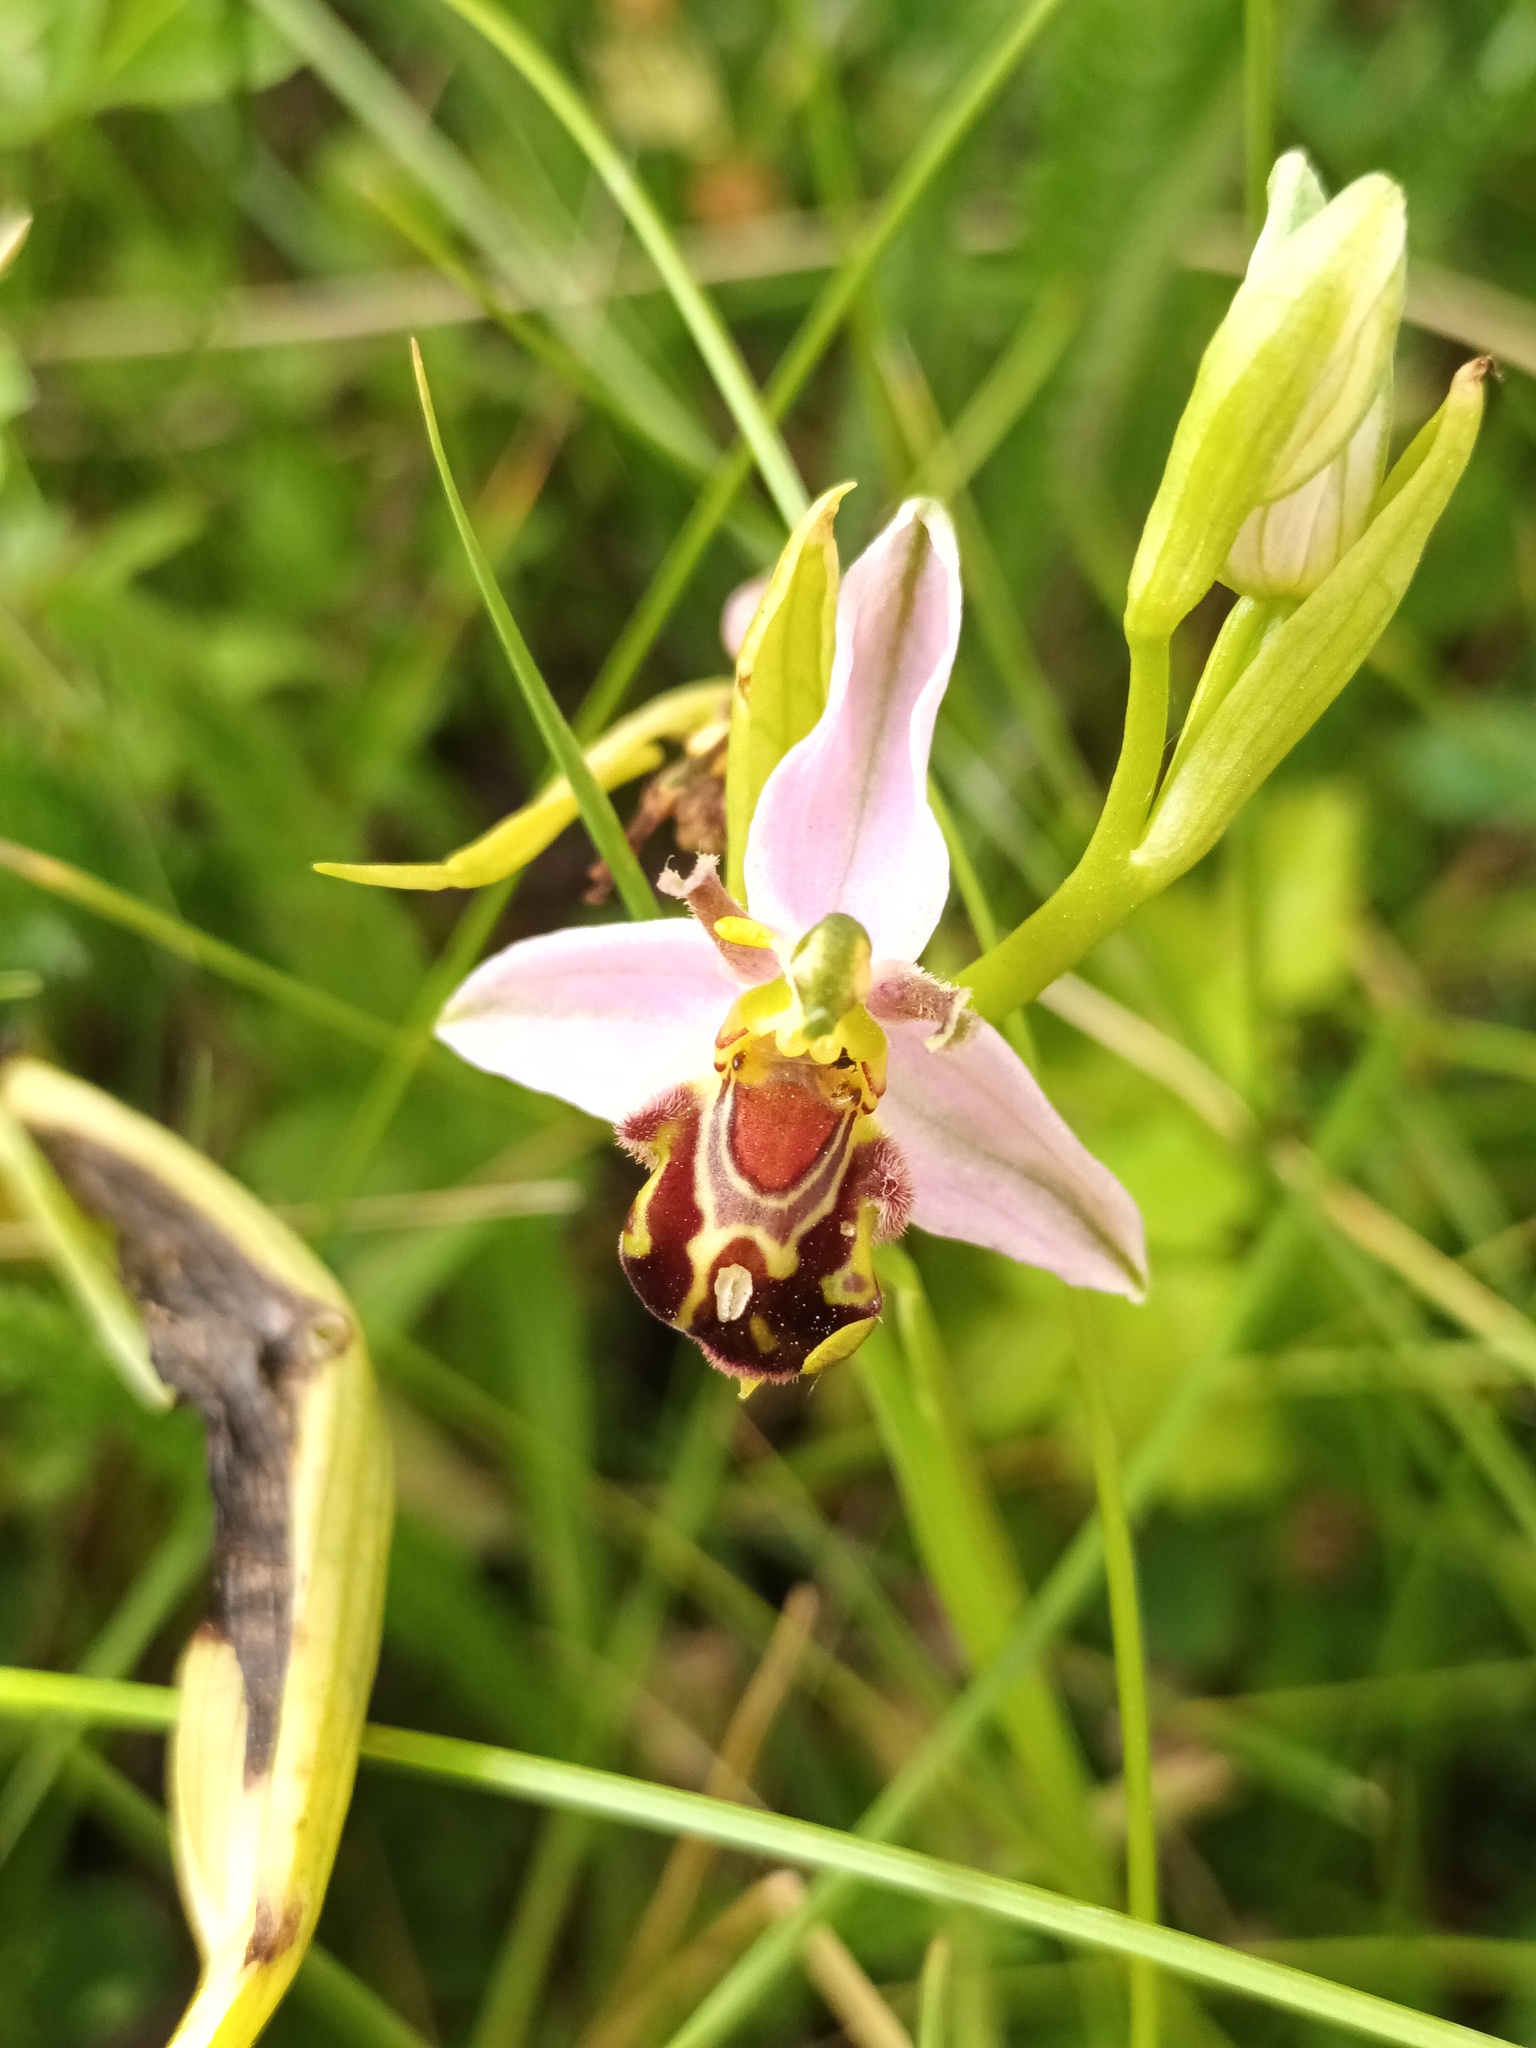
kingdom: Plantae
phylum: Tracheophyta
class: Liliopsida
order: Asparagales
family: Orchidaceae
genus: Ophrys
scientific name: Ophrys apifera
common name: Bee orchid
